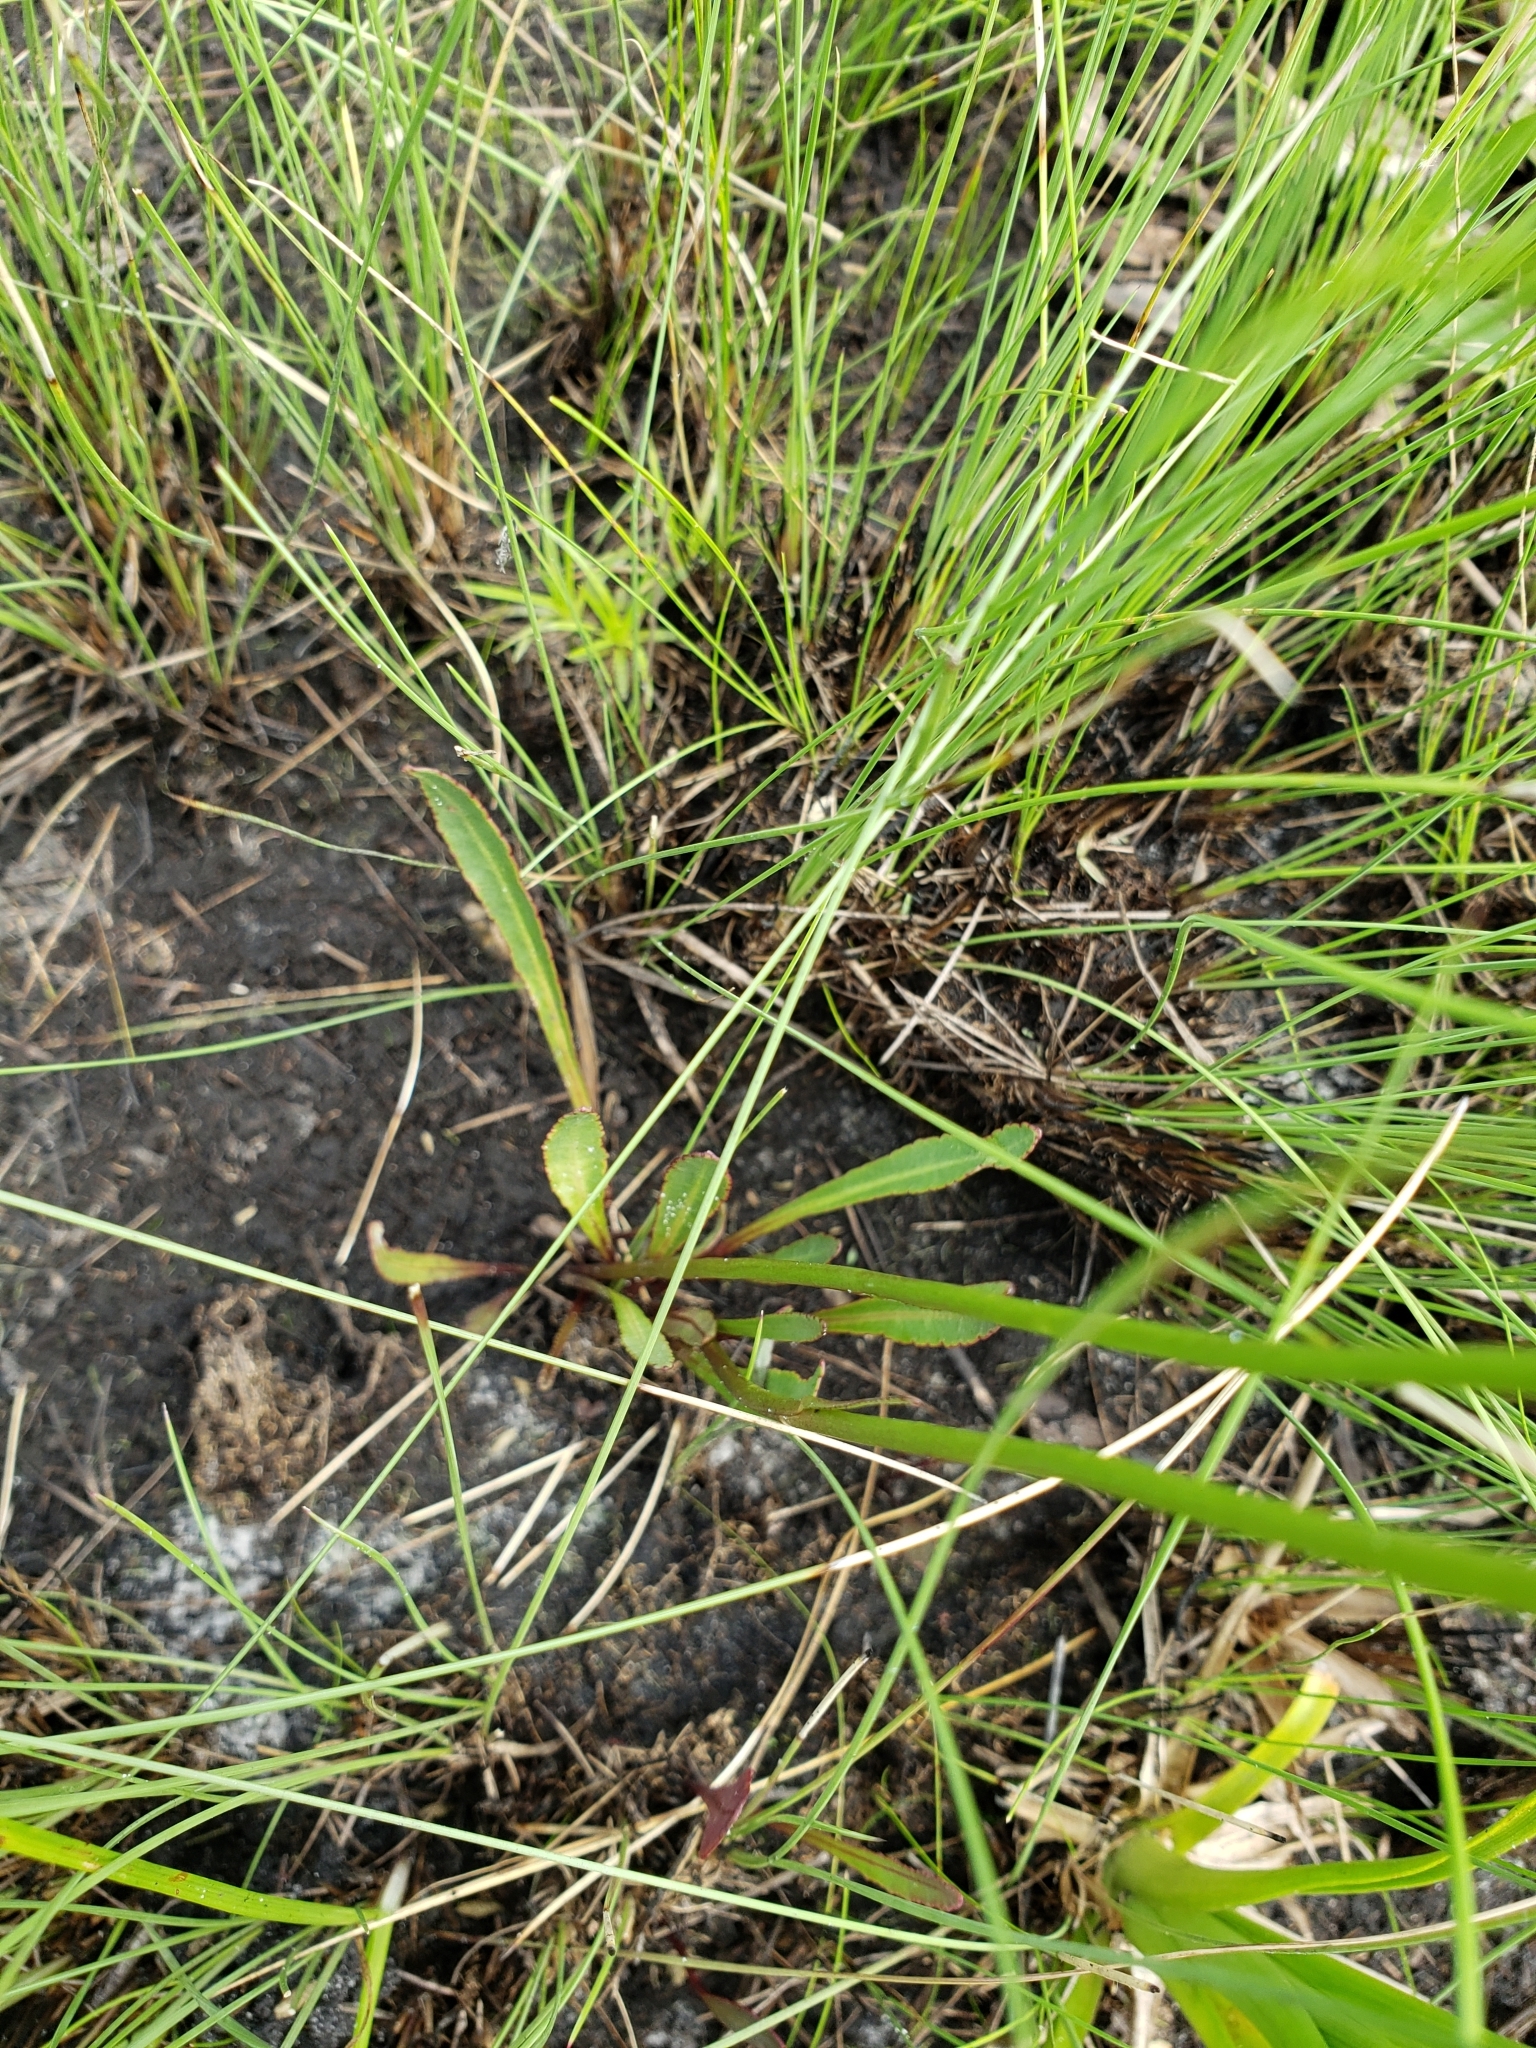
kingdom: Plantae
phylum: Tracheophyta
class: Magnoliopsida
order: Asterales
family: Campanulaceae
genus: Lobelia
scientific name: Lobelia paludosa
